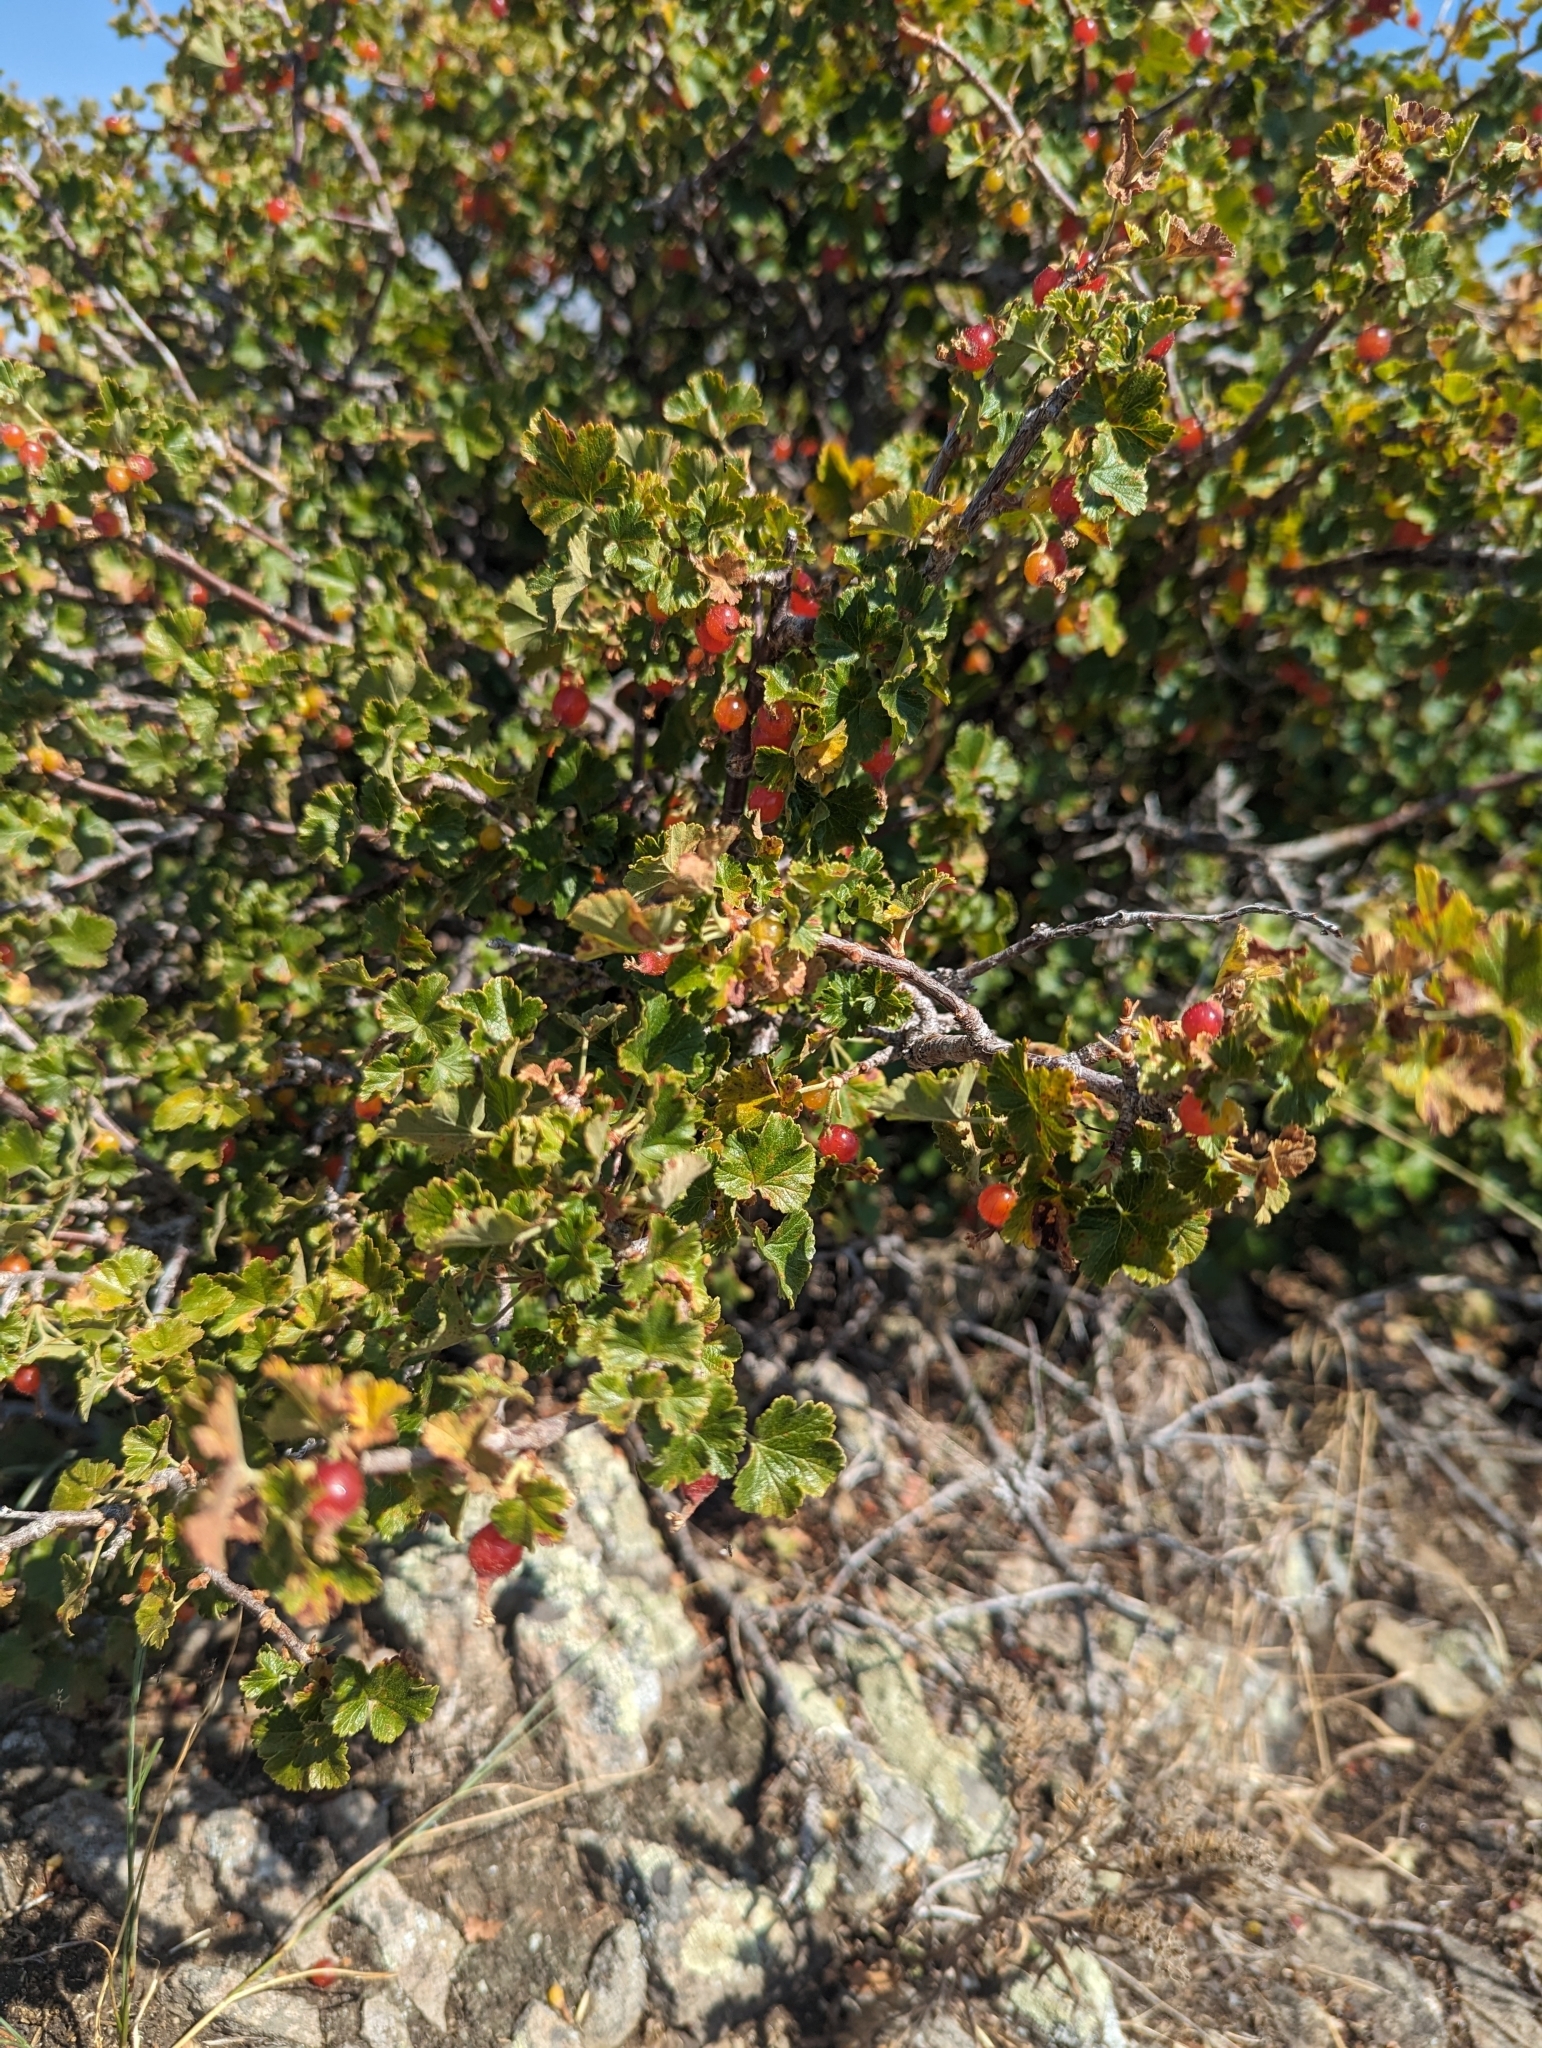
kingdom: Plantae
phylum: Tracheophyta
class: Magnoliopsida
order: Saxifragales
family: Grossulariaceae
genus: Ribes
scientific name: Ribes cereum
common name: Wax currant
